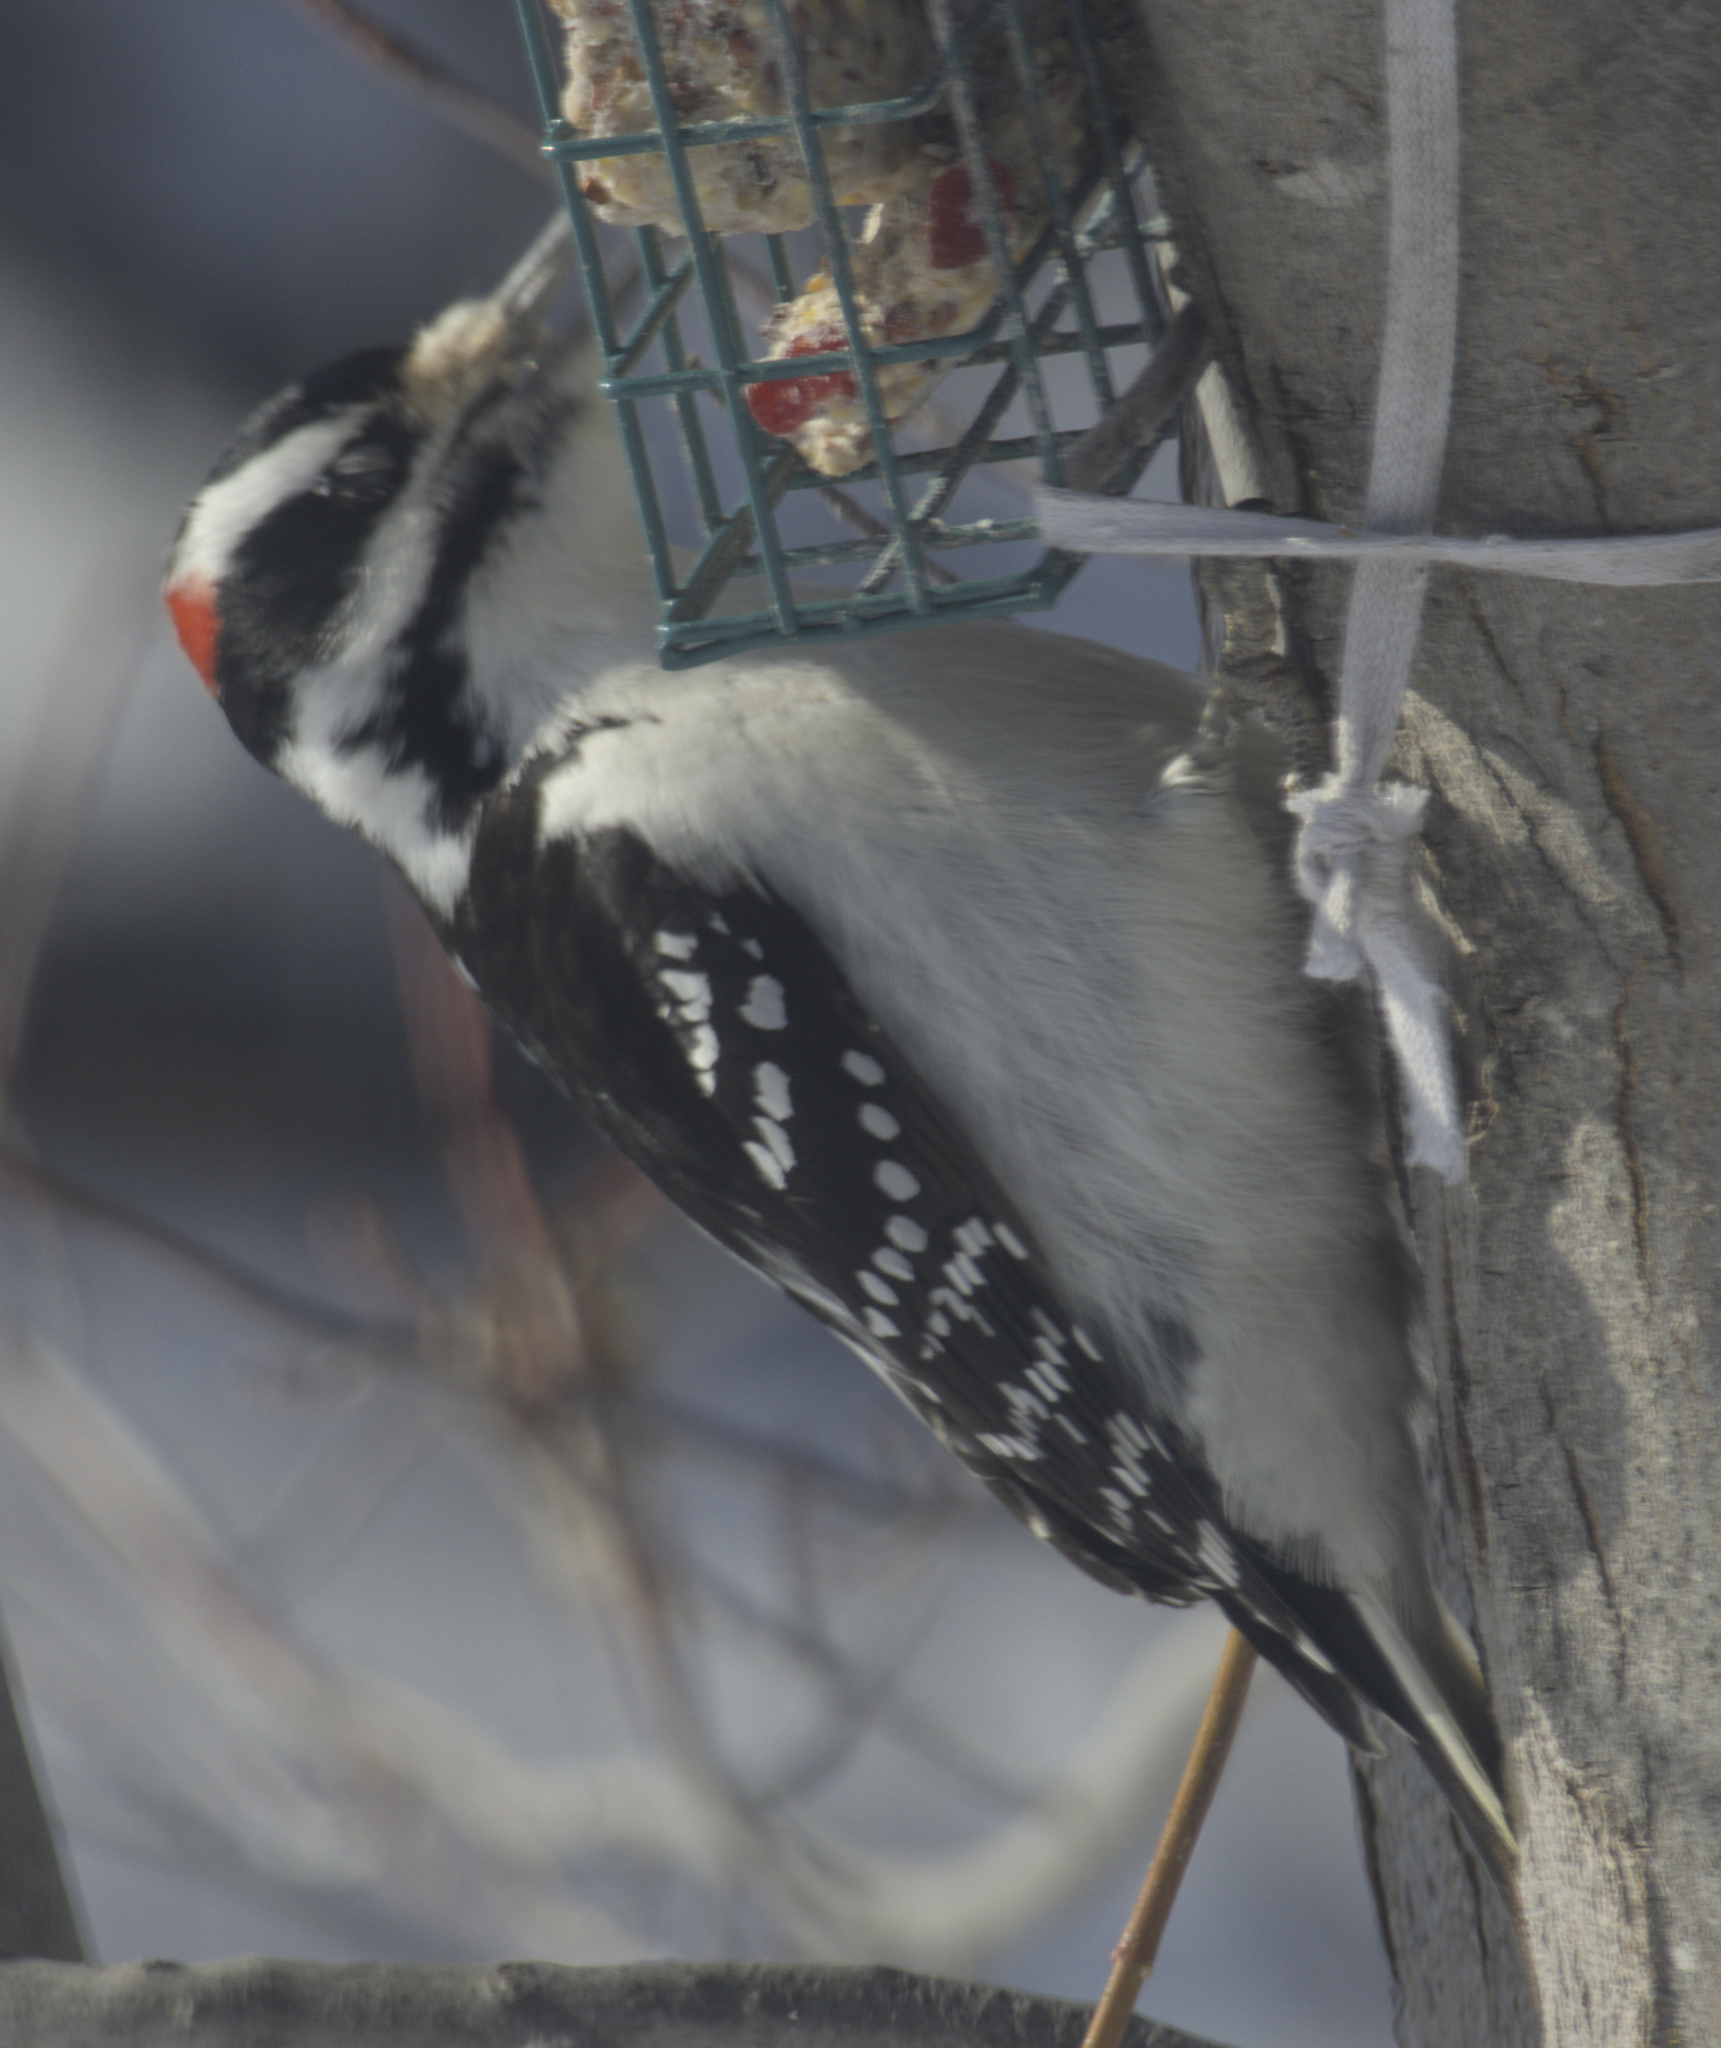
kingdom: Animalia
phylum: Chordata
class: Aves
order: Piciformes
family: Picidae
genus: Leuconotopicus
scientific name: Leuconotopicus villosus
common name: Hairy woodpecker
